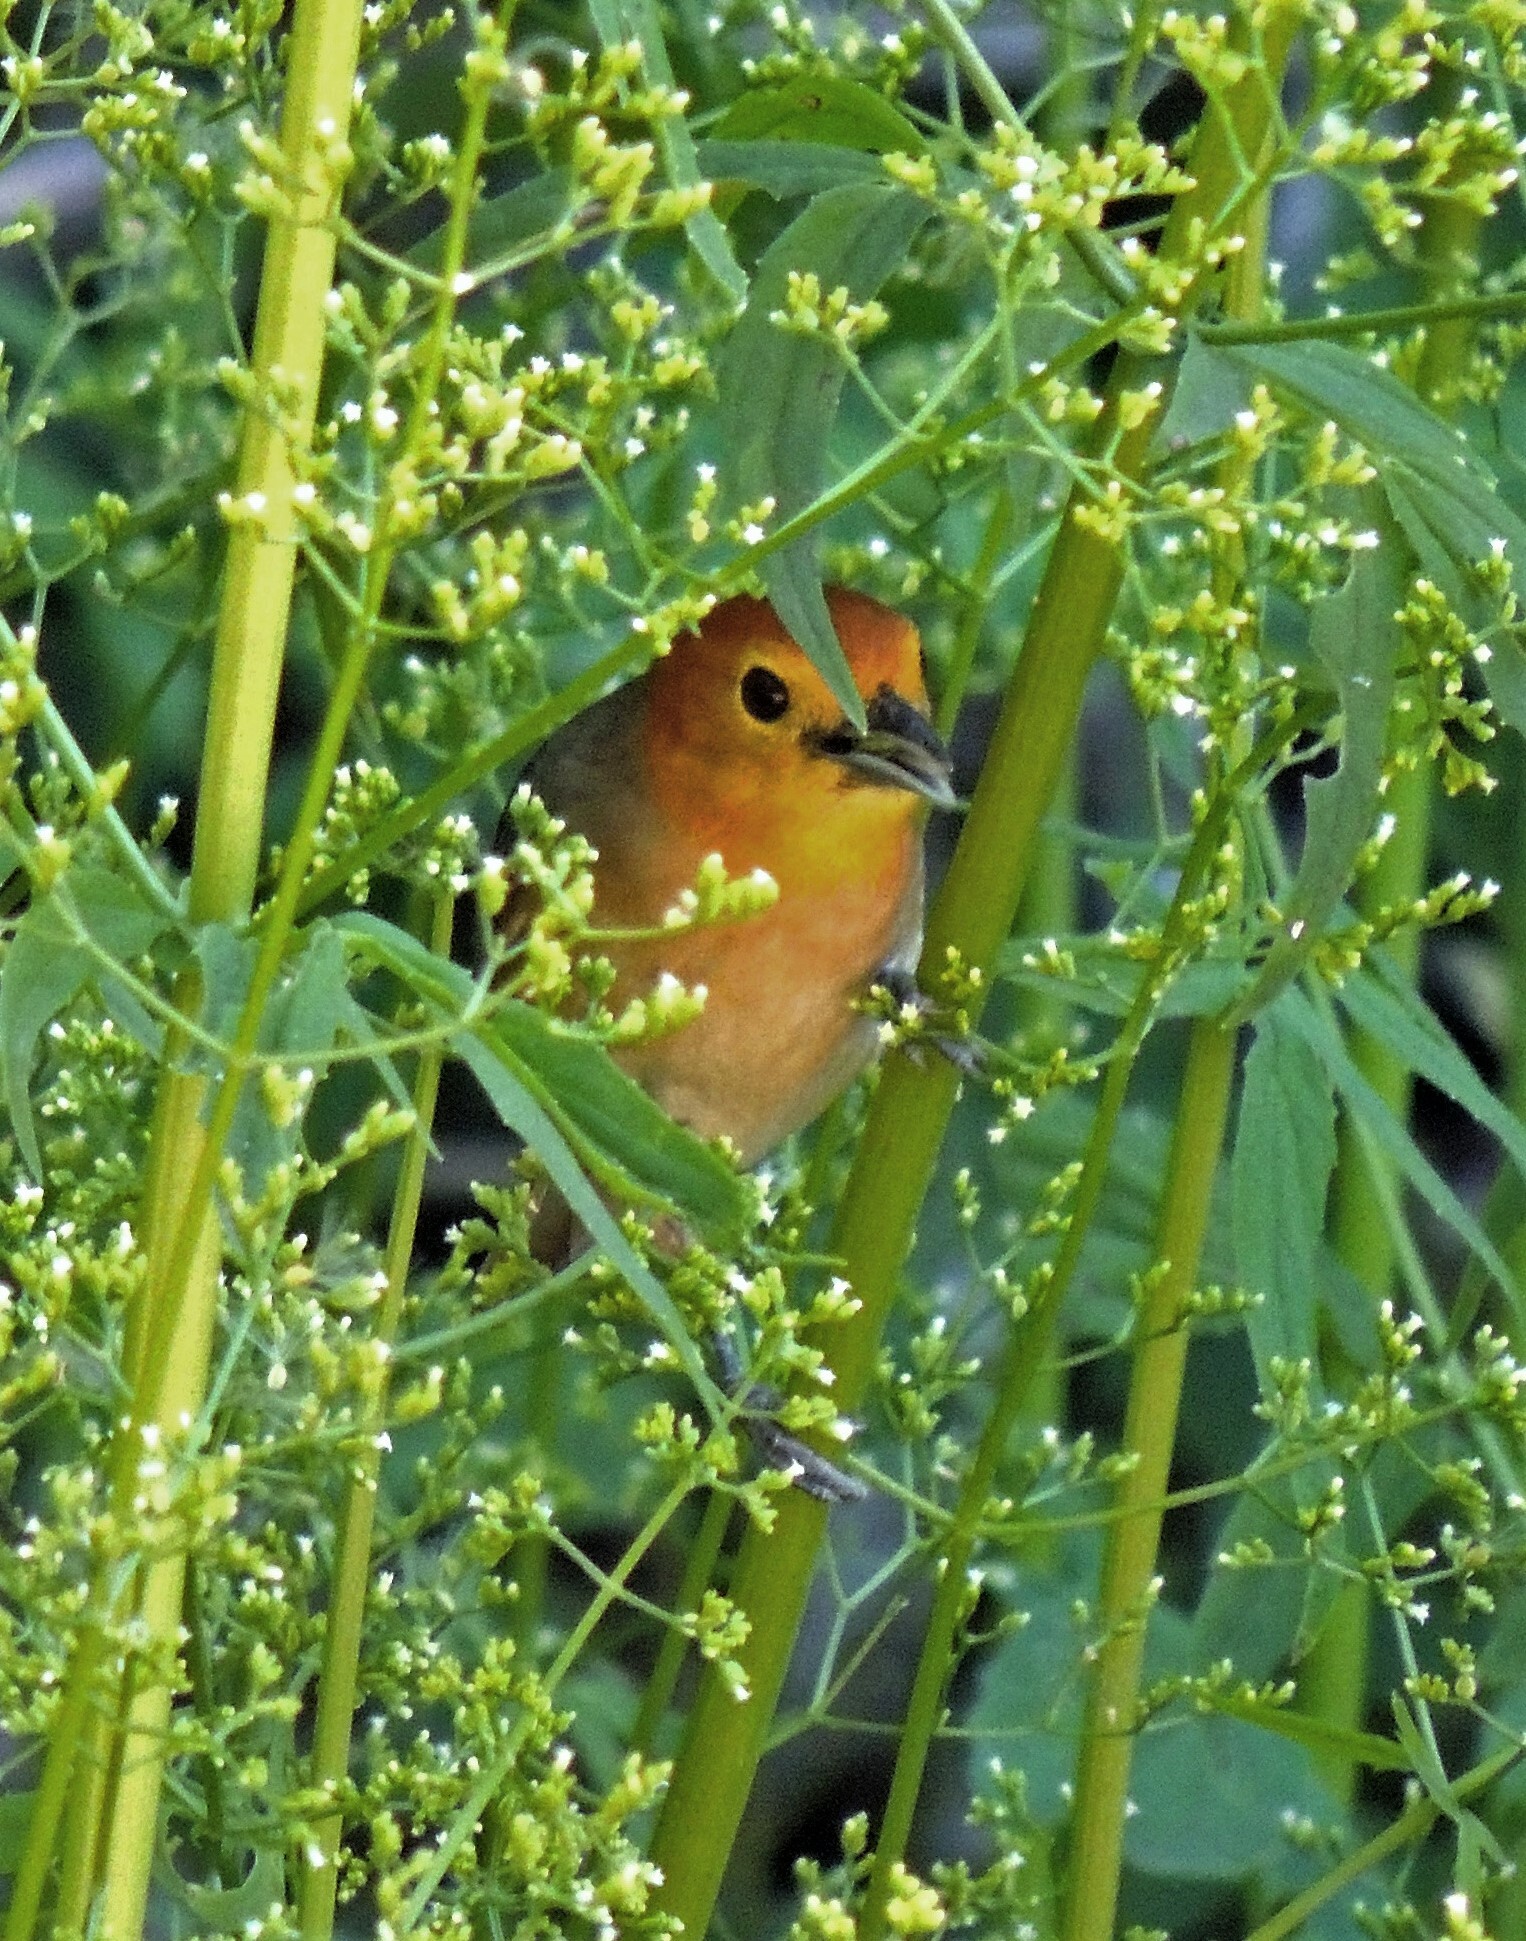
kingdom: Animalia
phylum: Chordata
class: Aves
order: Passeriformes
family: Thraupidae
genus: Thlypopsis
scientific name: Thlypopsis sordida
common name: Orange-headed tanager
